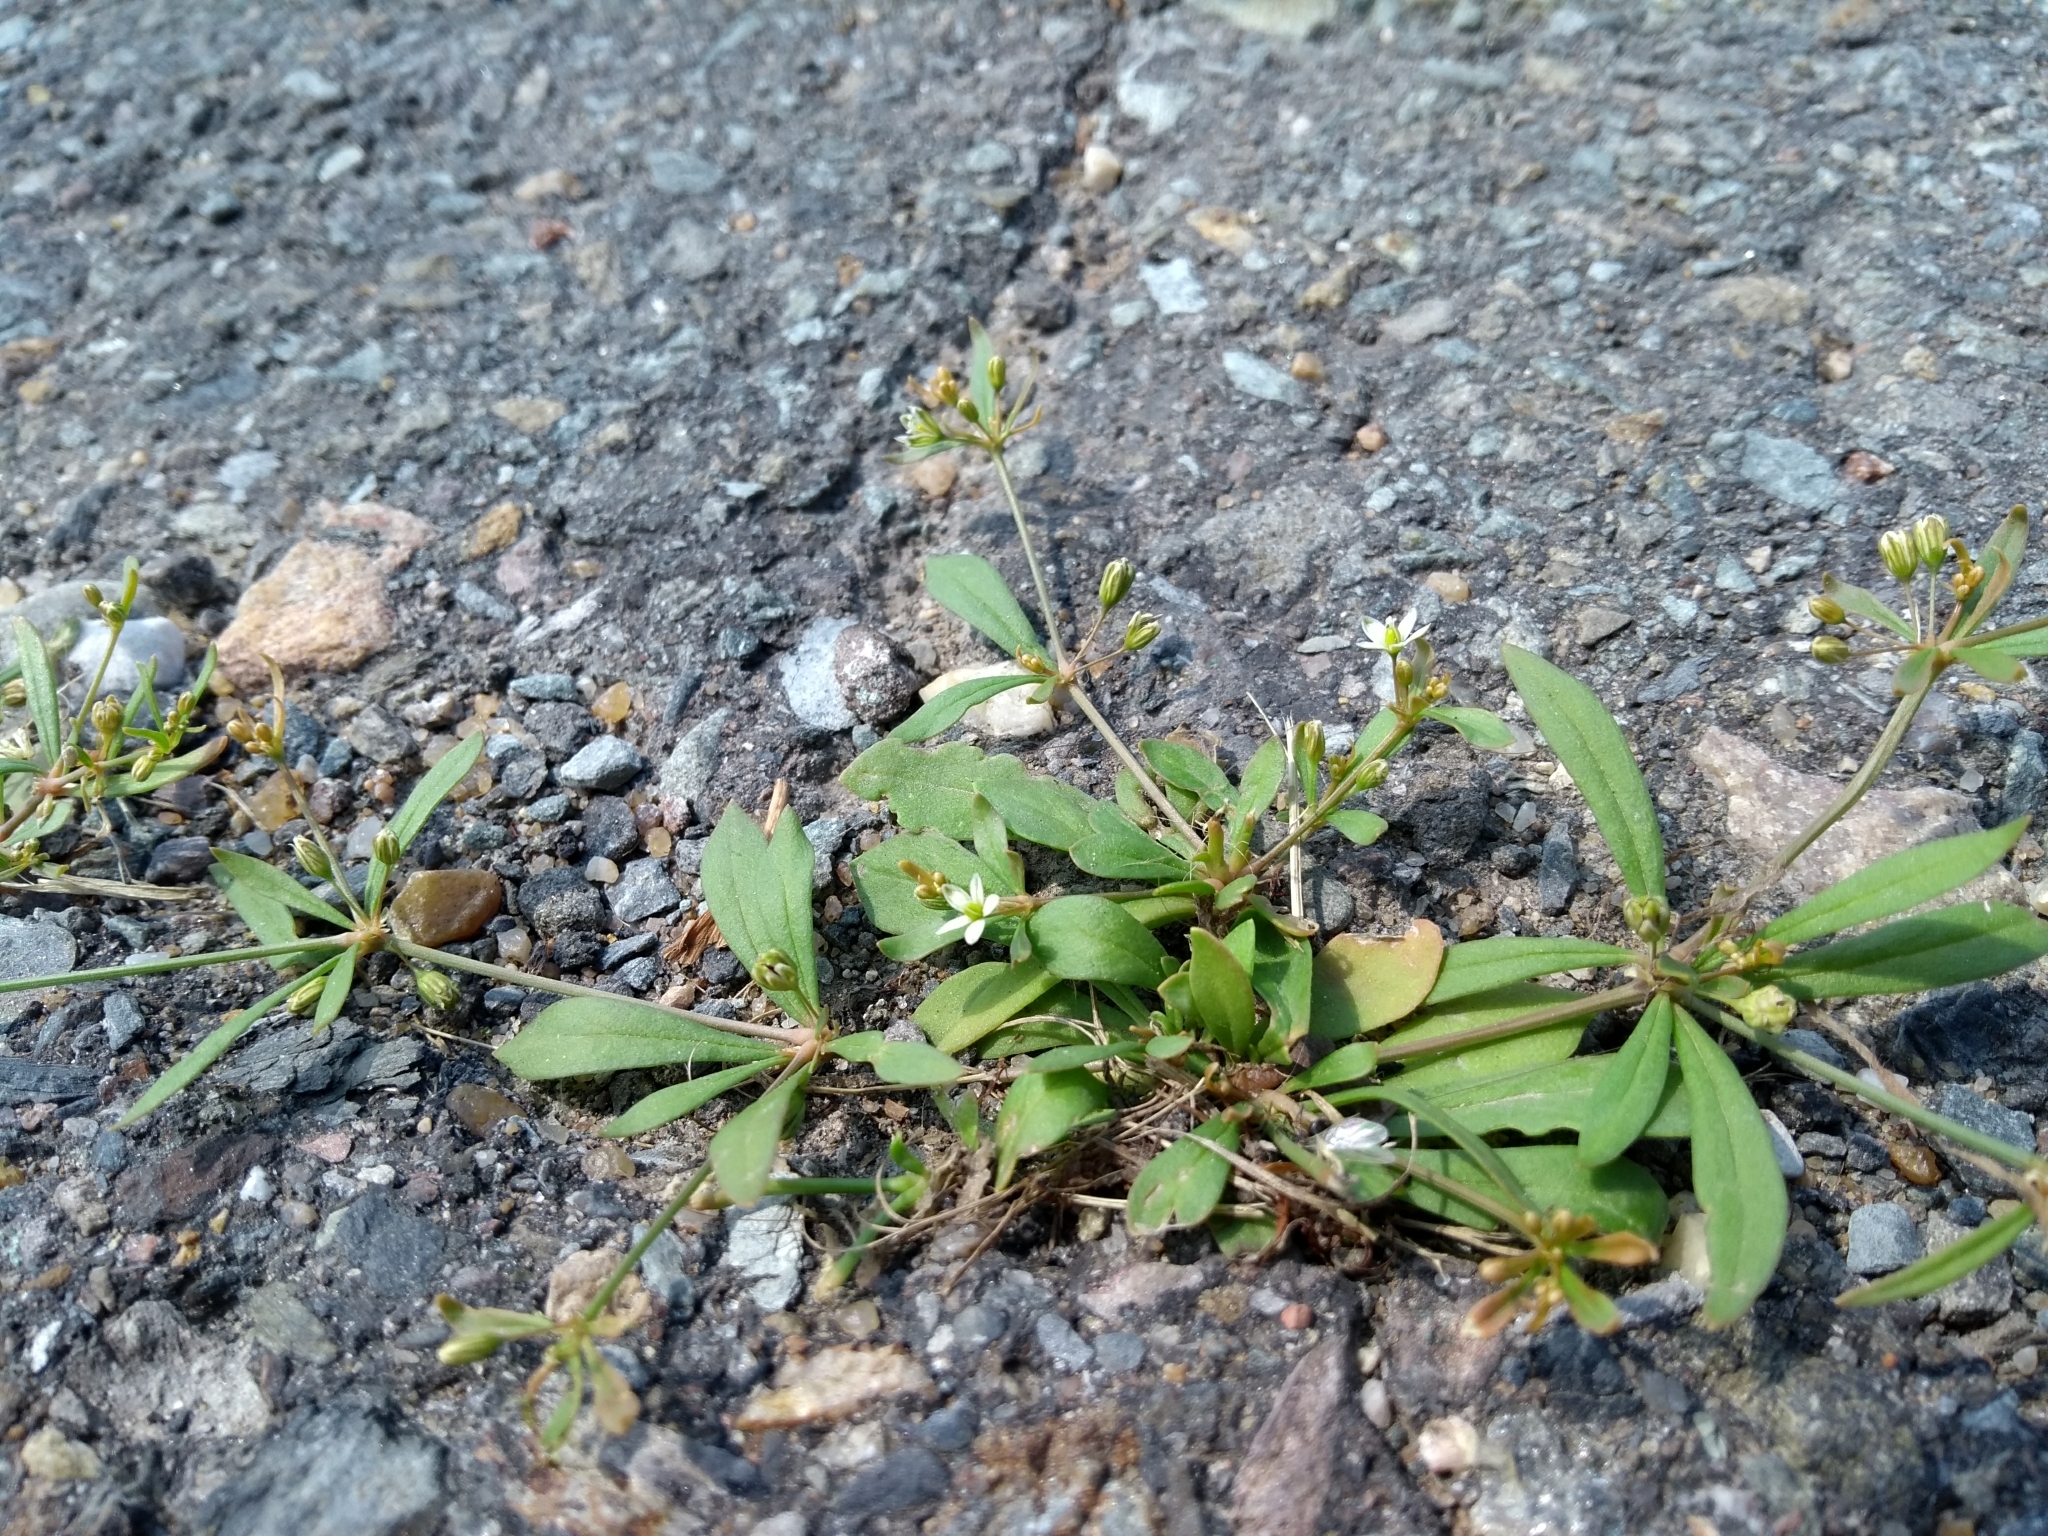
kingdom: Plantae
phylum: Tracheophyta
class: Magnoliopsida
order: Caryophyllales
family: Molluginaceae
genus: Mollugo
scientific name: Mollugo verticillata
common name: Green carpetweed
